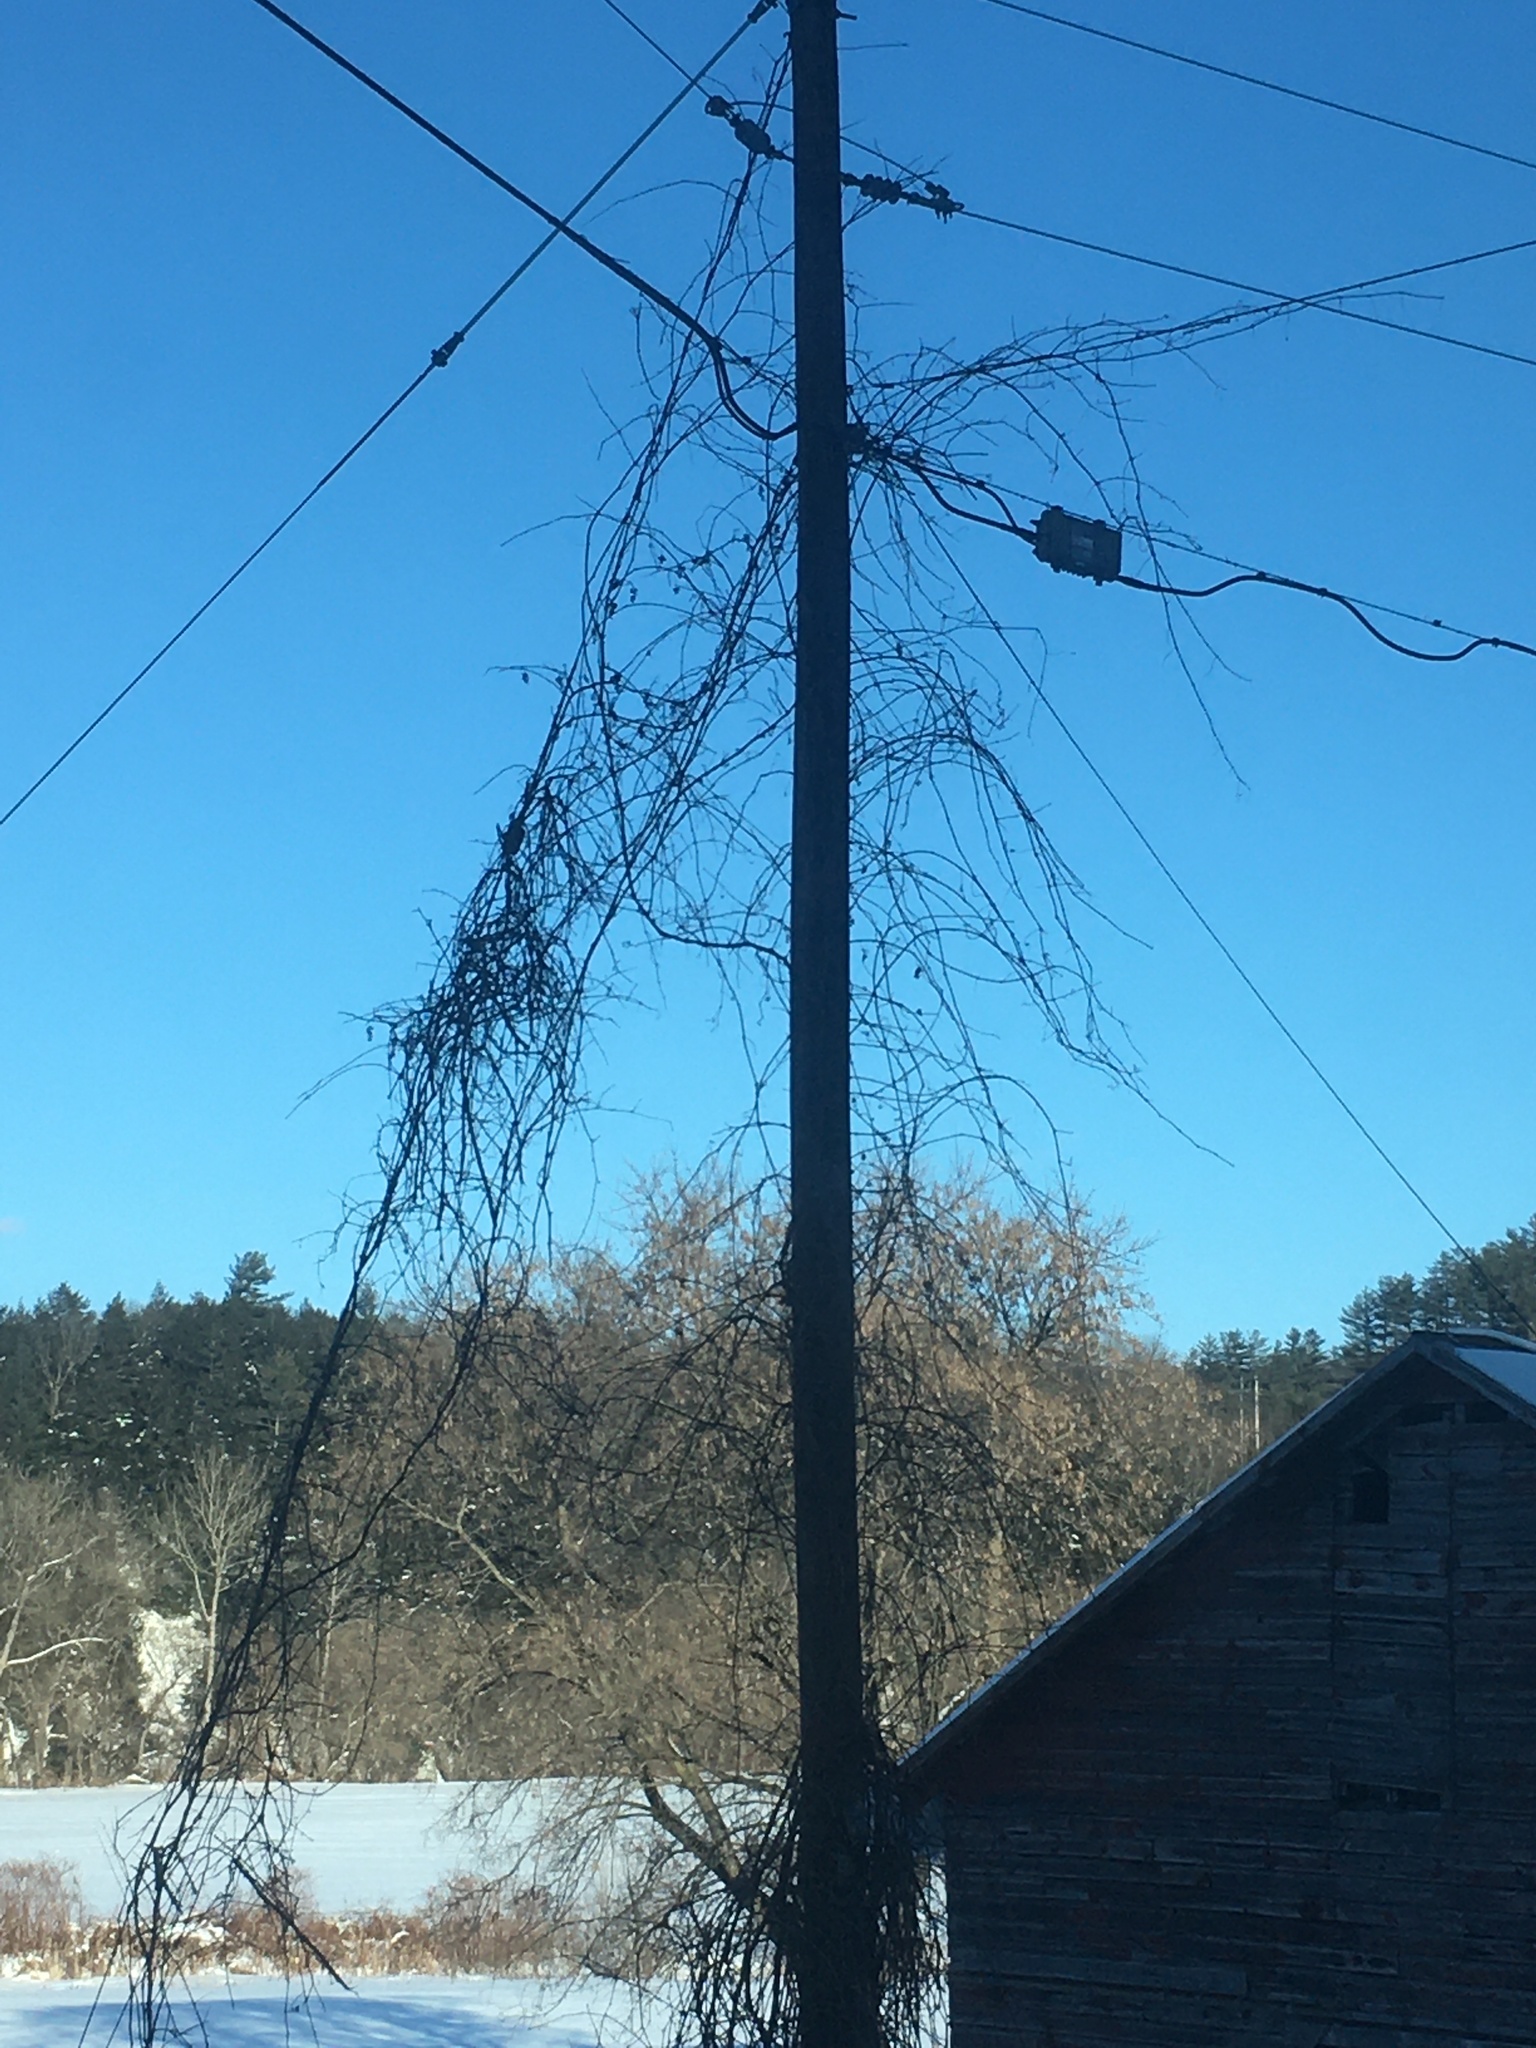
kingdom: Plantae
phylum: Tracheophyta
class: Magnoliopsida
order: Vitales
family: Vitaceae
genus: Vitis
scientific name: Vitis
